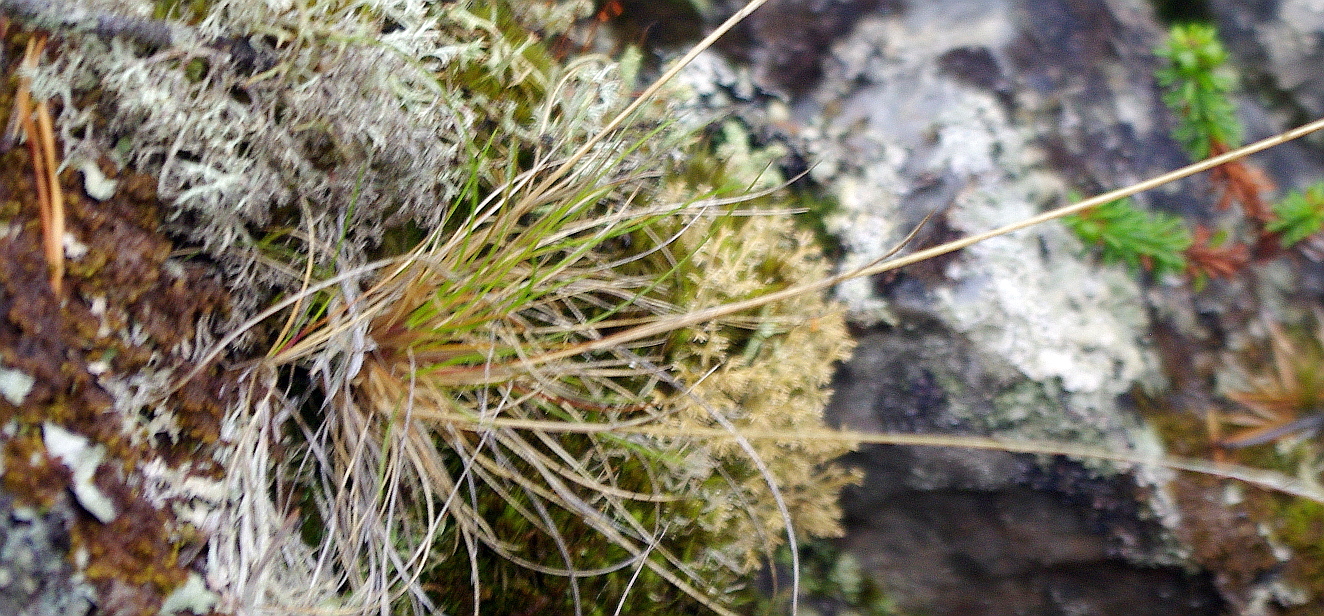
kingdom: Plantae
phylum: Tracheophyta
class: Liliopsida
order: Poales
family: Poaceae
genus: Nardus
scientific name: Nardus stricta
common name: Mat-grass
